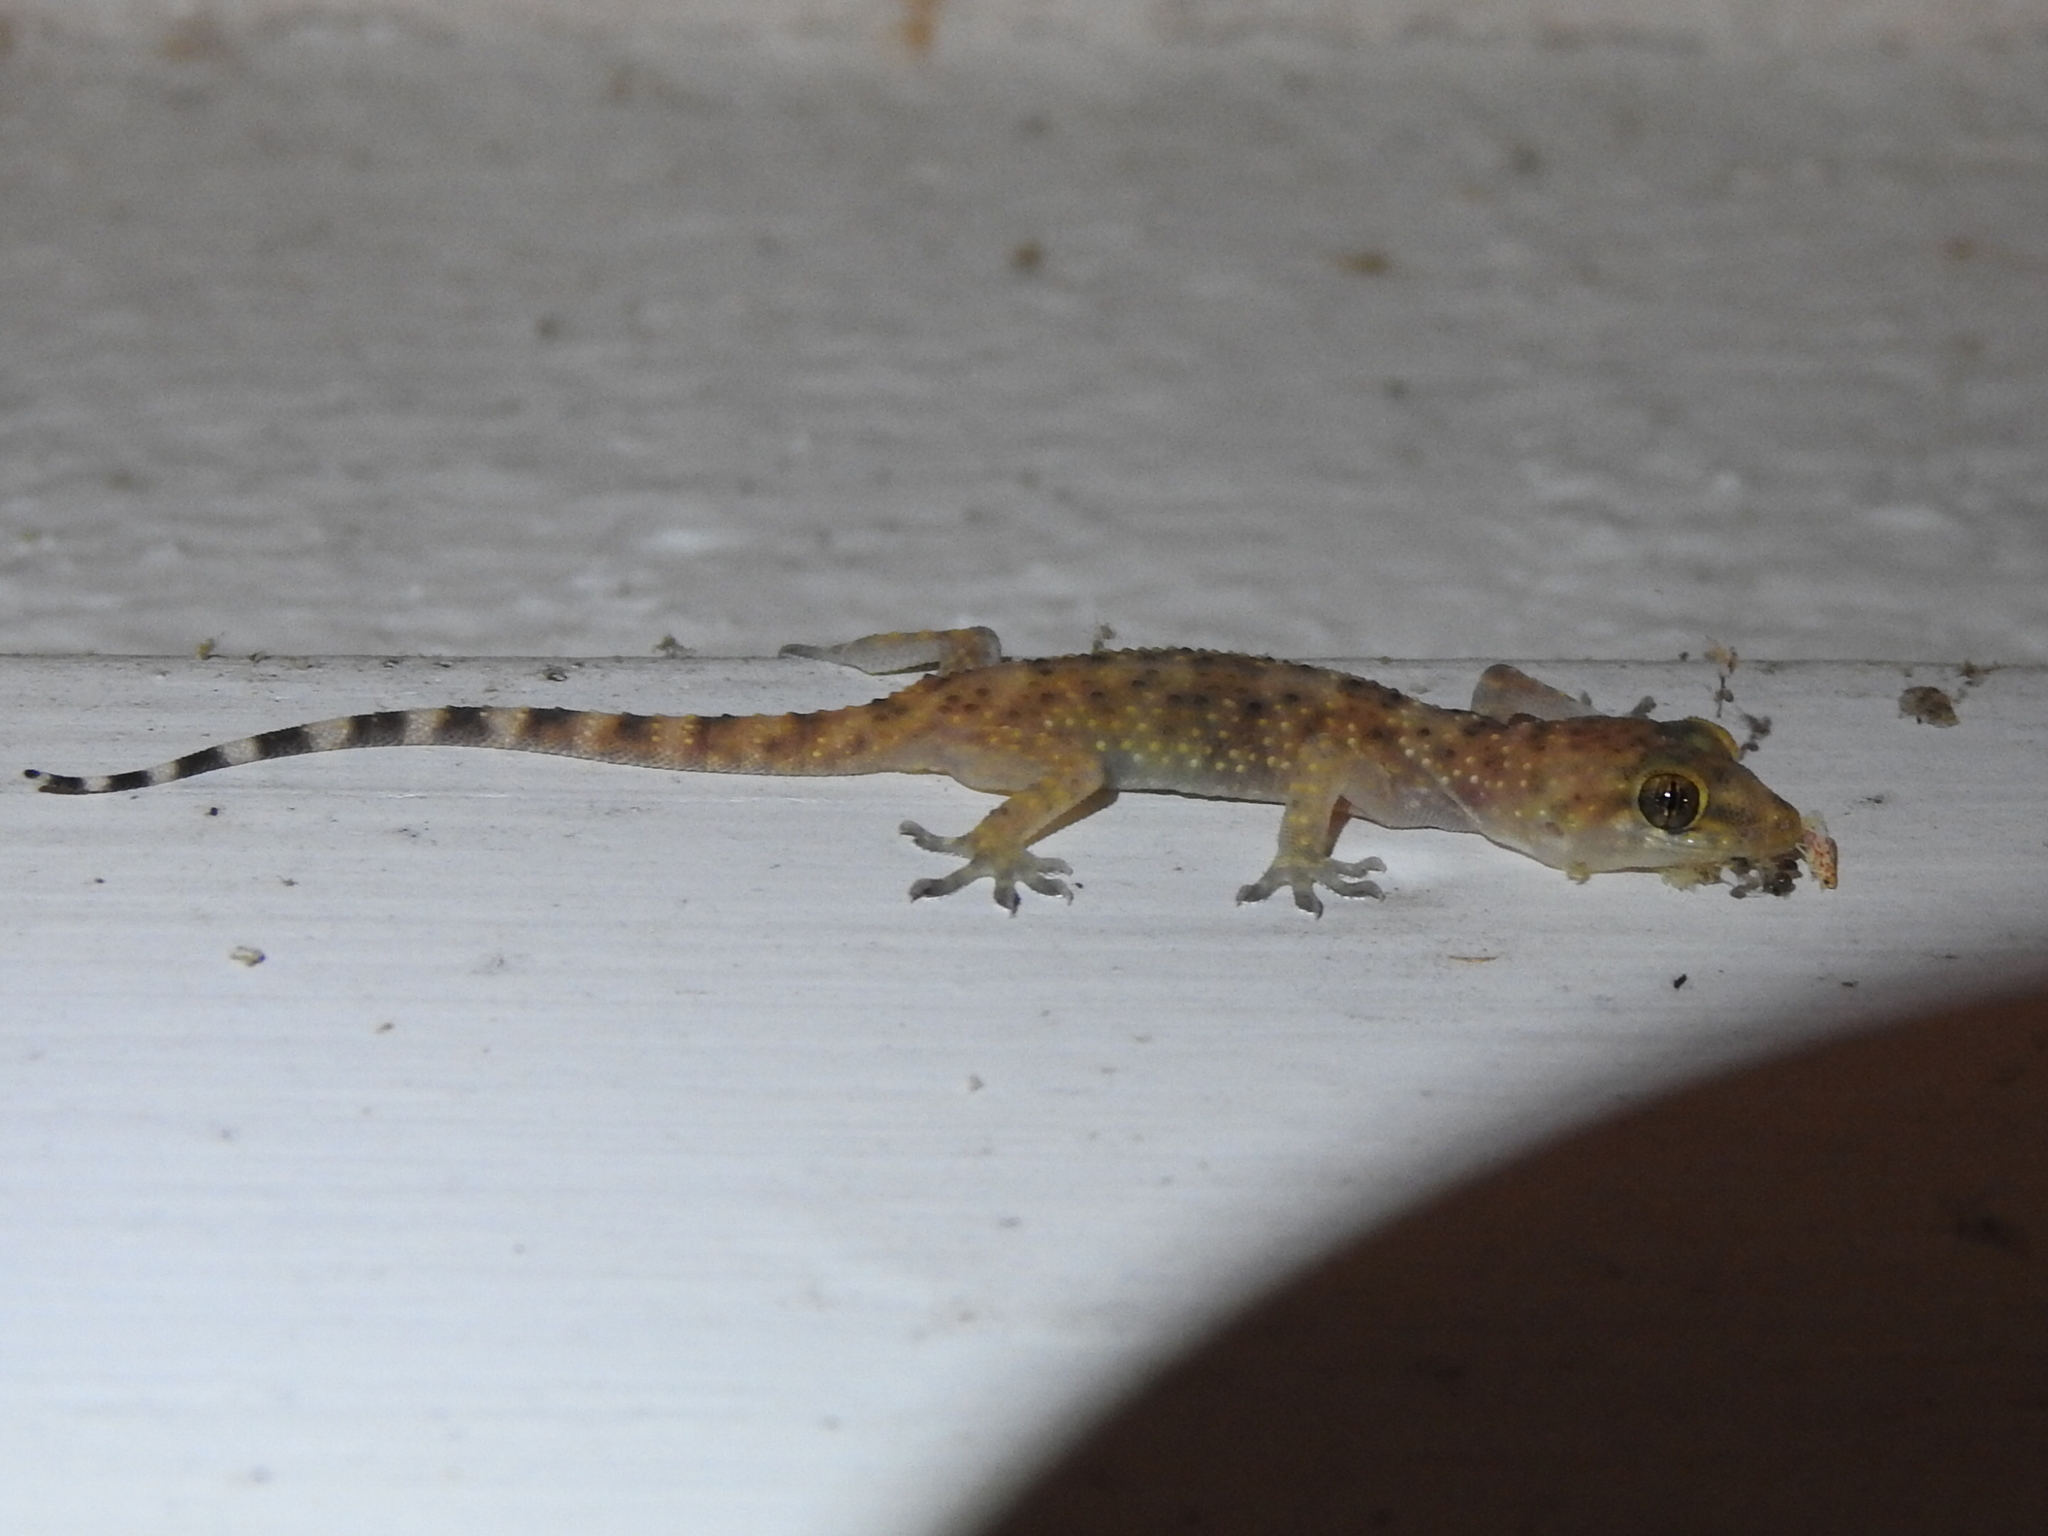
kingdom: Animalia
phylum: Chordata
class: Squamata
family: Gekkonidae
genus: Hemidactylus
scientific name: Hemidactylus turcicus
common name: Turkish gecko
